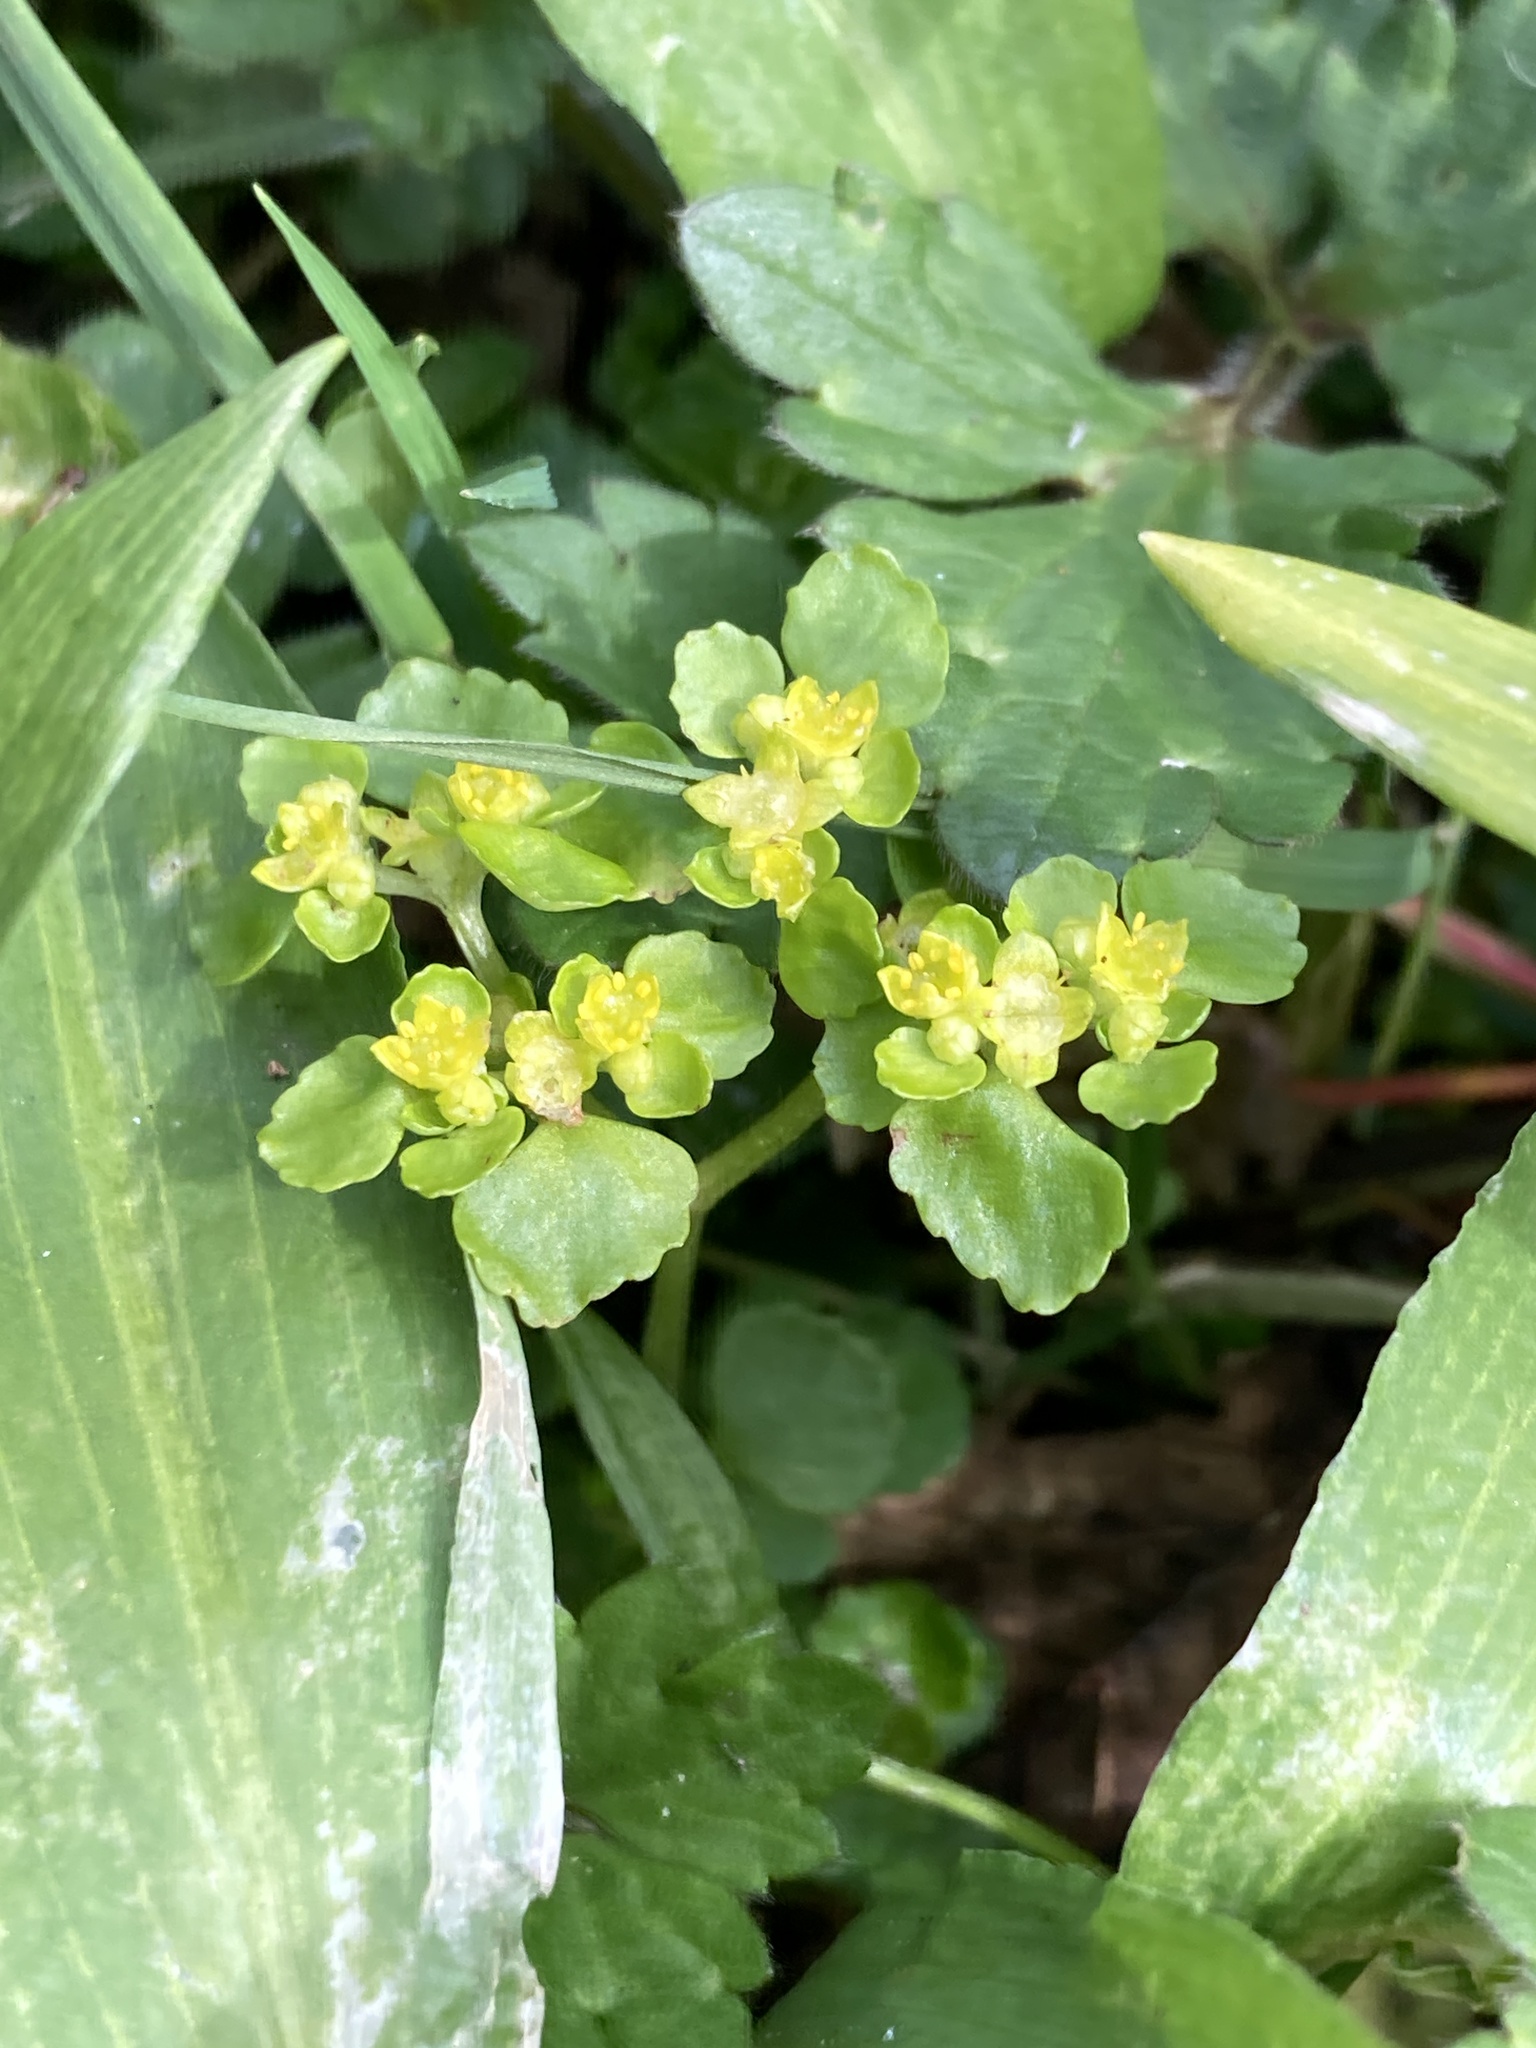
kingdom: Plantae
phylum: Tracheophyta
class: Magnoliopsida
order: Saxifragales
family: Saxifragaceae
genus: Chrysosplenium
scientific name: Chrysosplenium oppositifolium
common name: Opposite-leaved golden-saxifrage
